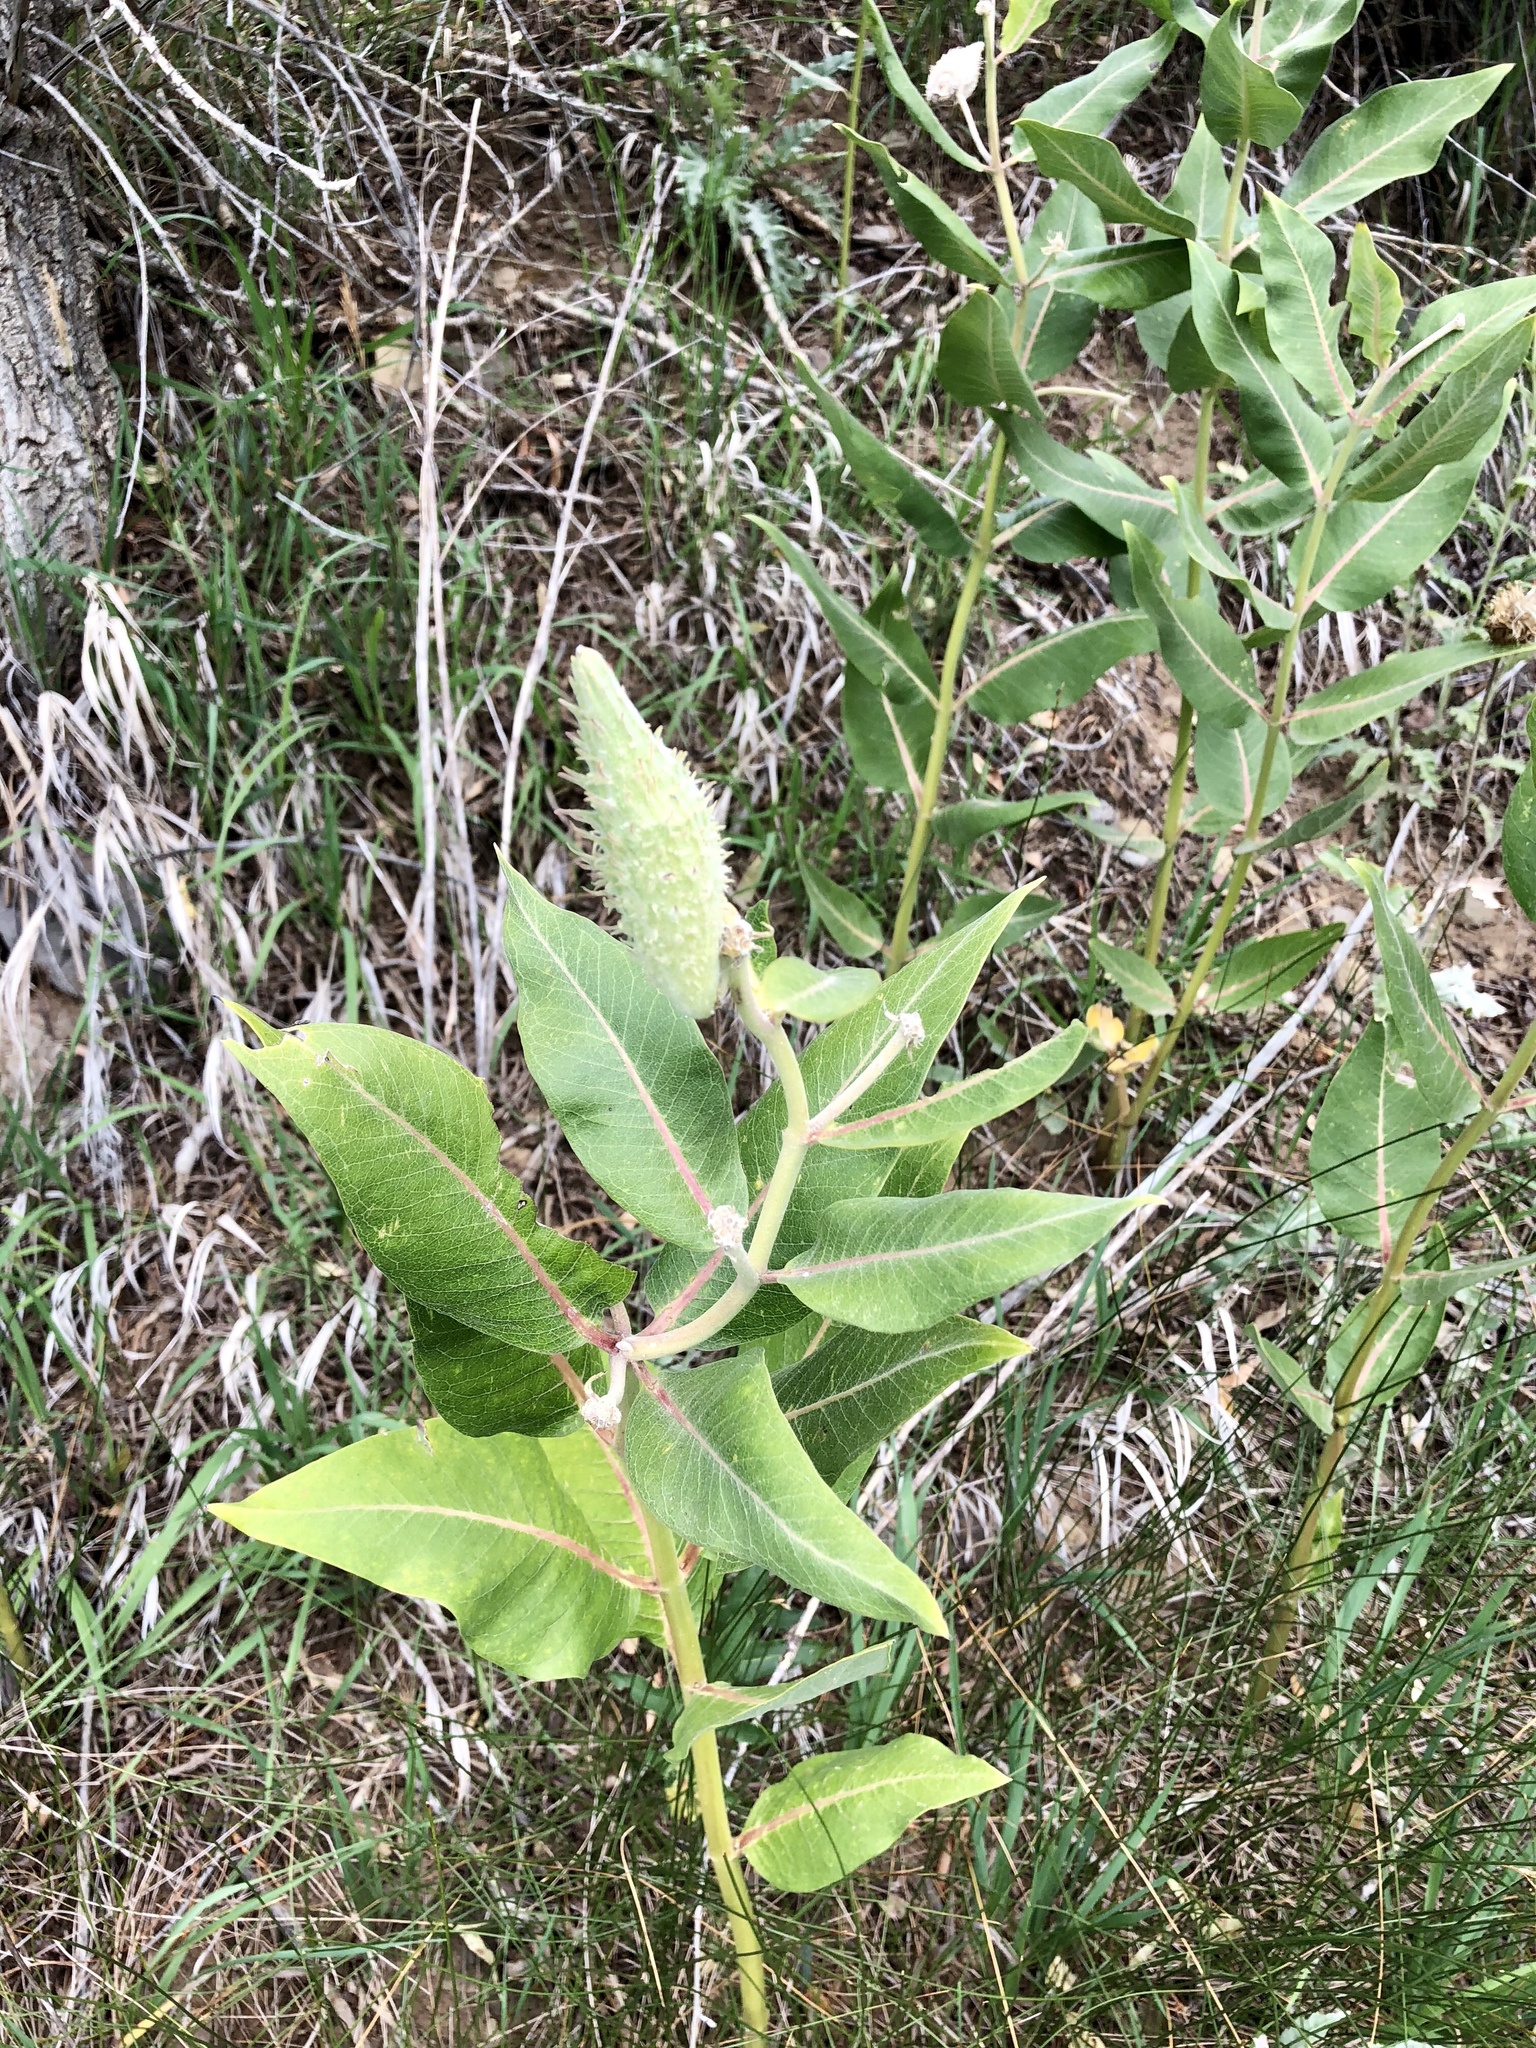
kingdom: Plantae
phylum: Tracheophyta
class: Magnoliopsida
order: Gentianales
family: Apocynaceae
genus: Asclepias
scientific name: Asclepias speciosa
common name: Showy milkweed
